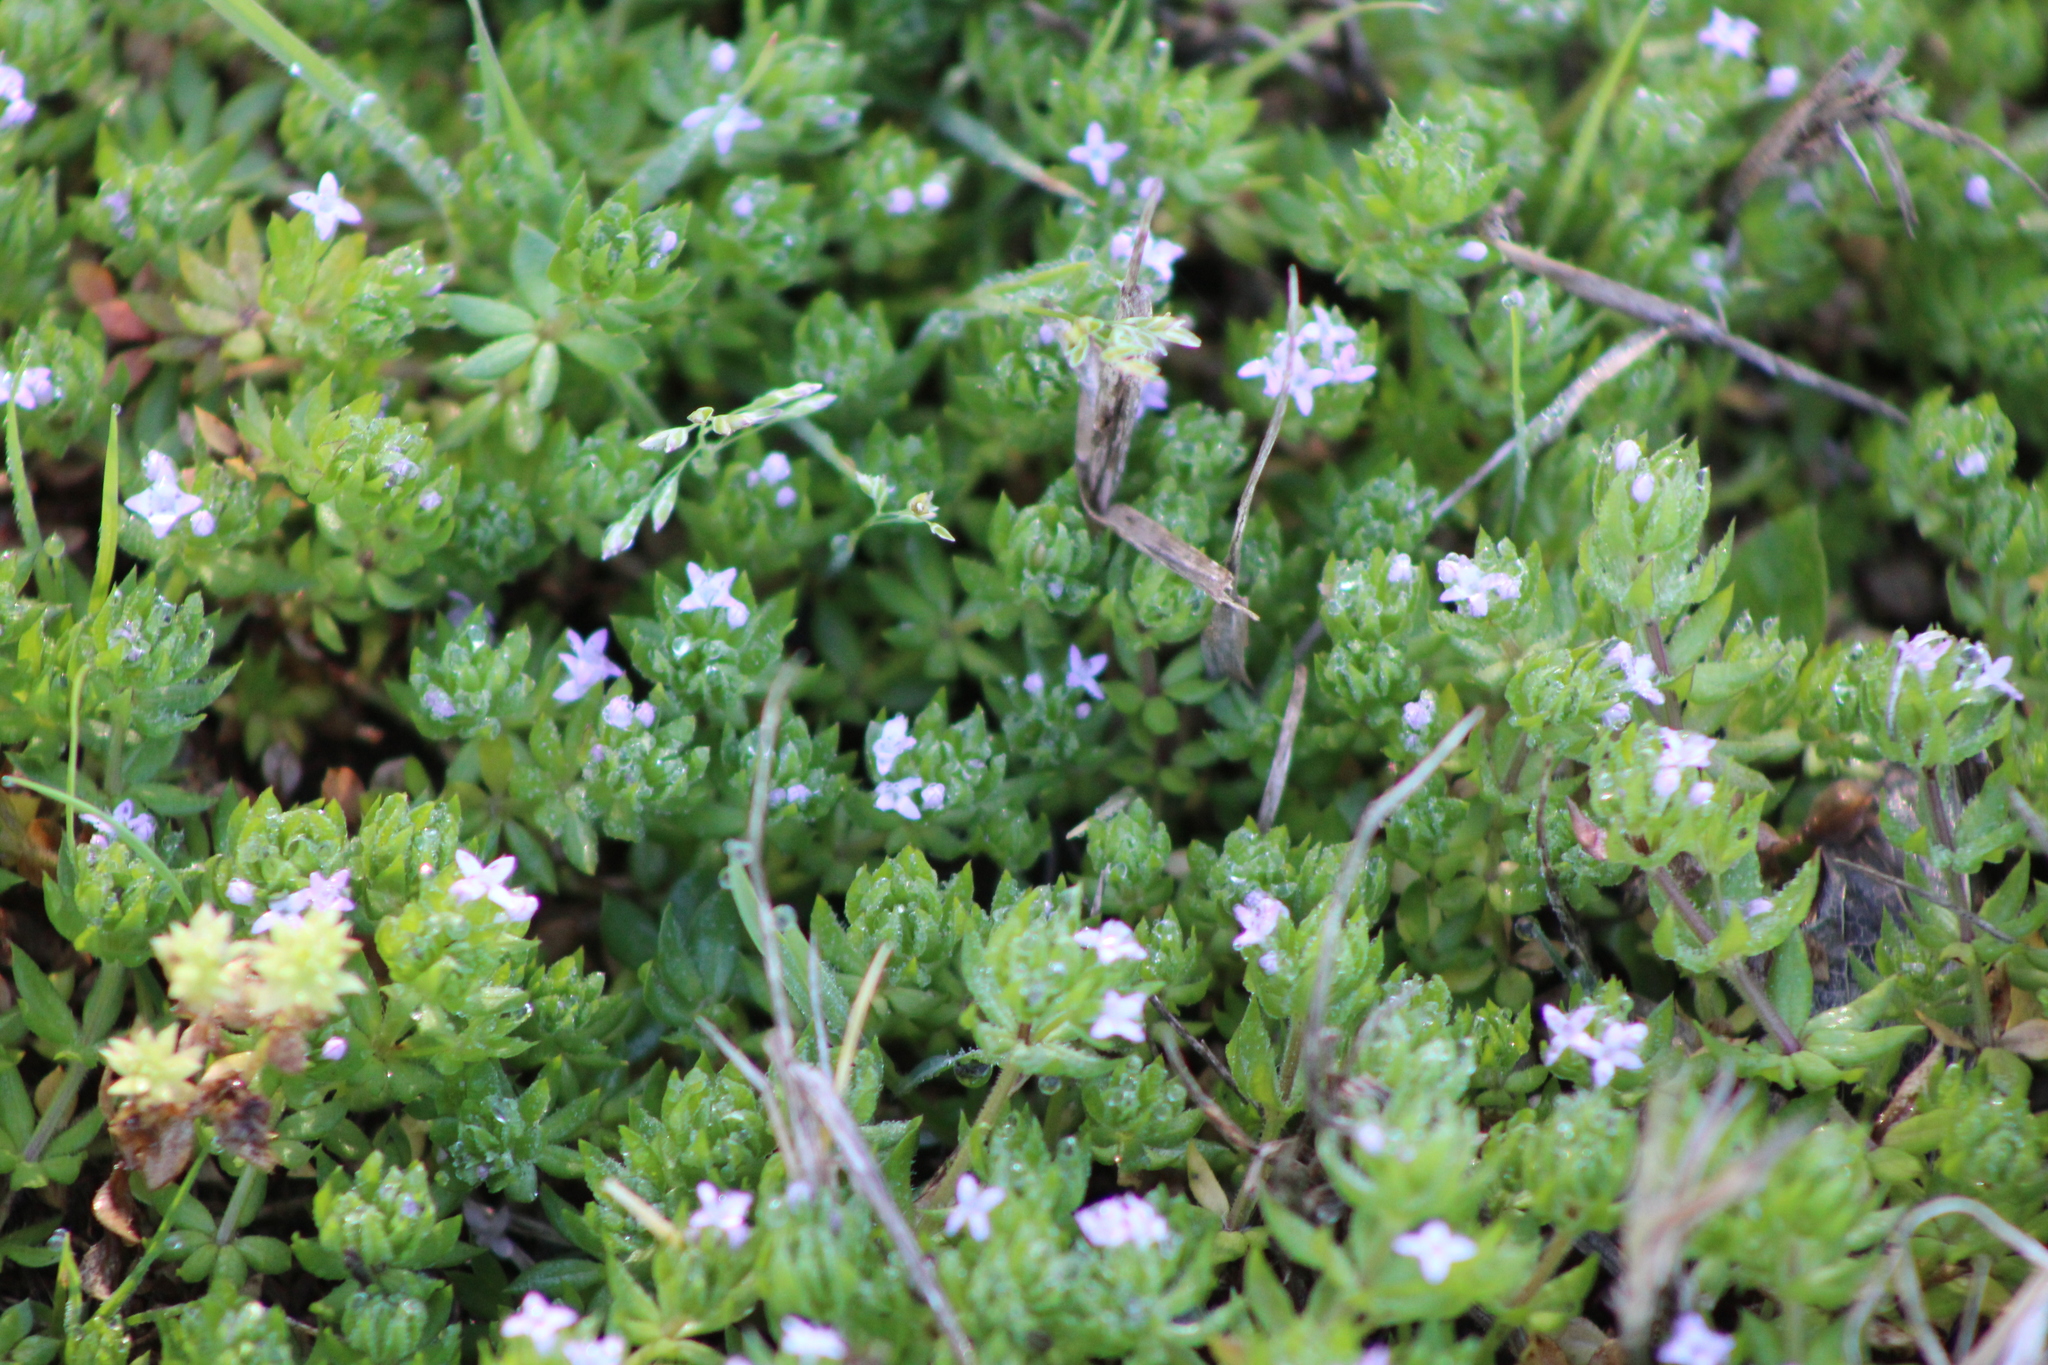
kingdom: Plantae
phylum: Tracheophyta
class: Magnoliopsida
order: Gentianales
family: Rubiaceae
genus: Sherardia
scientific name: Sherardia arvensis
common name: Field madder
